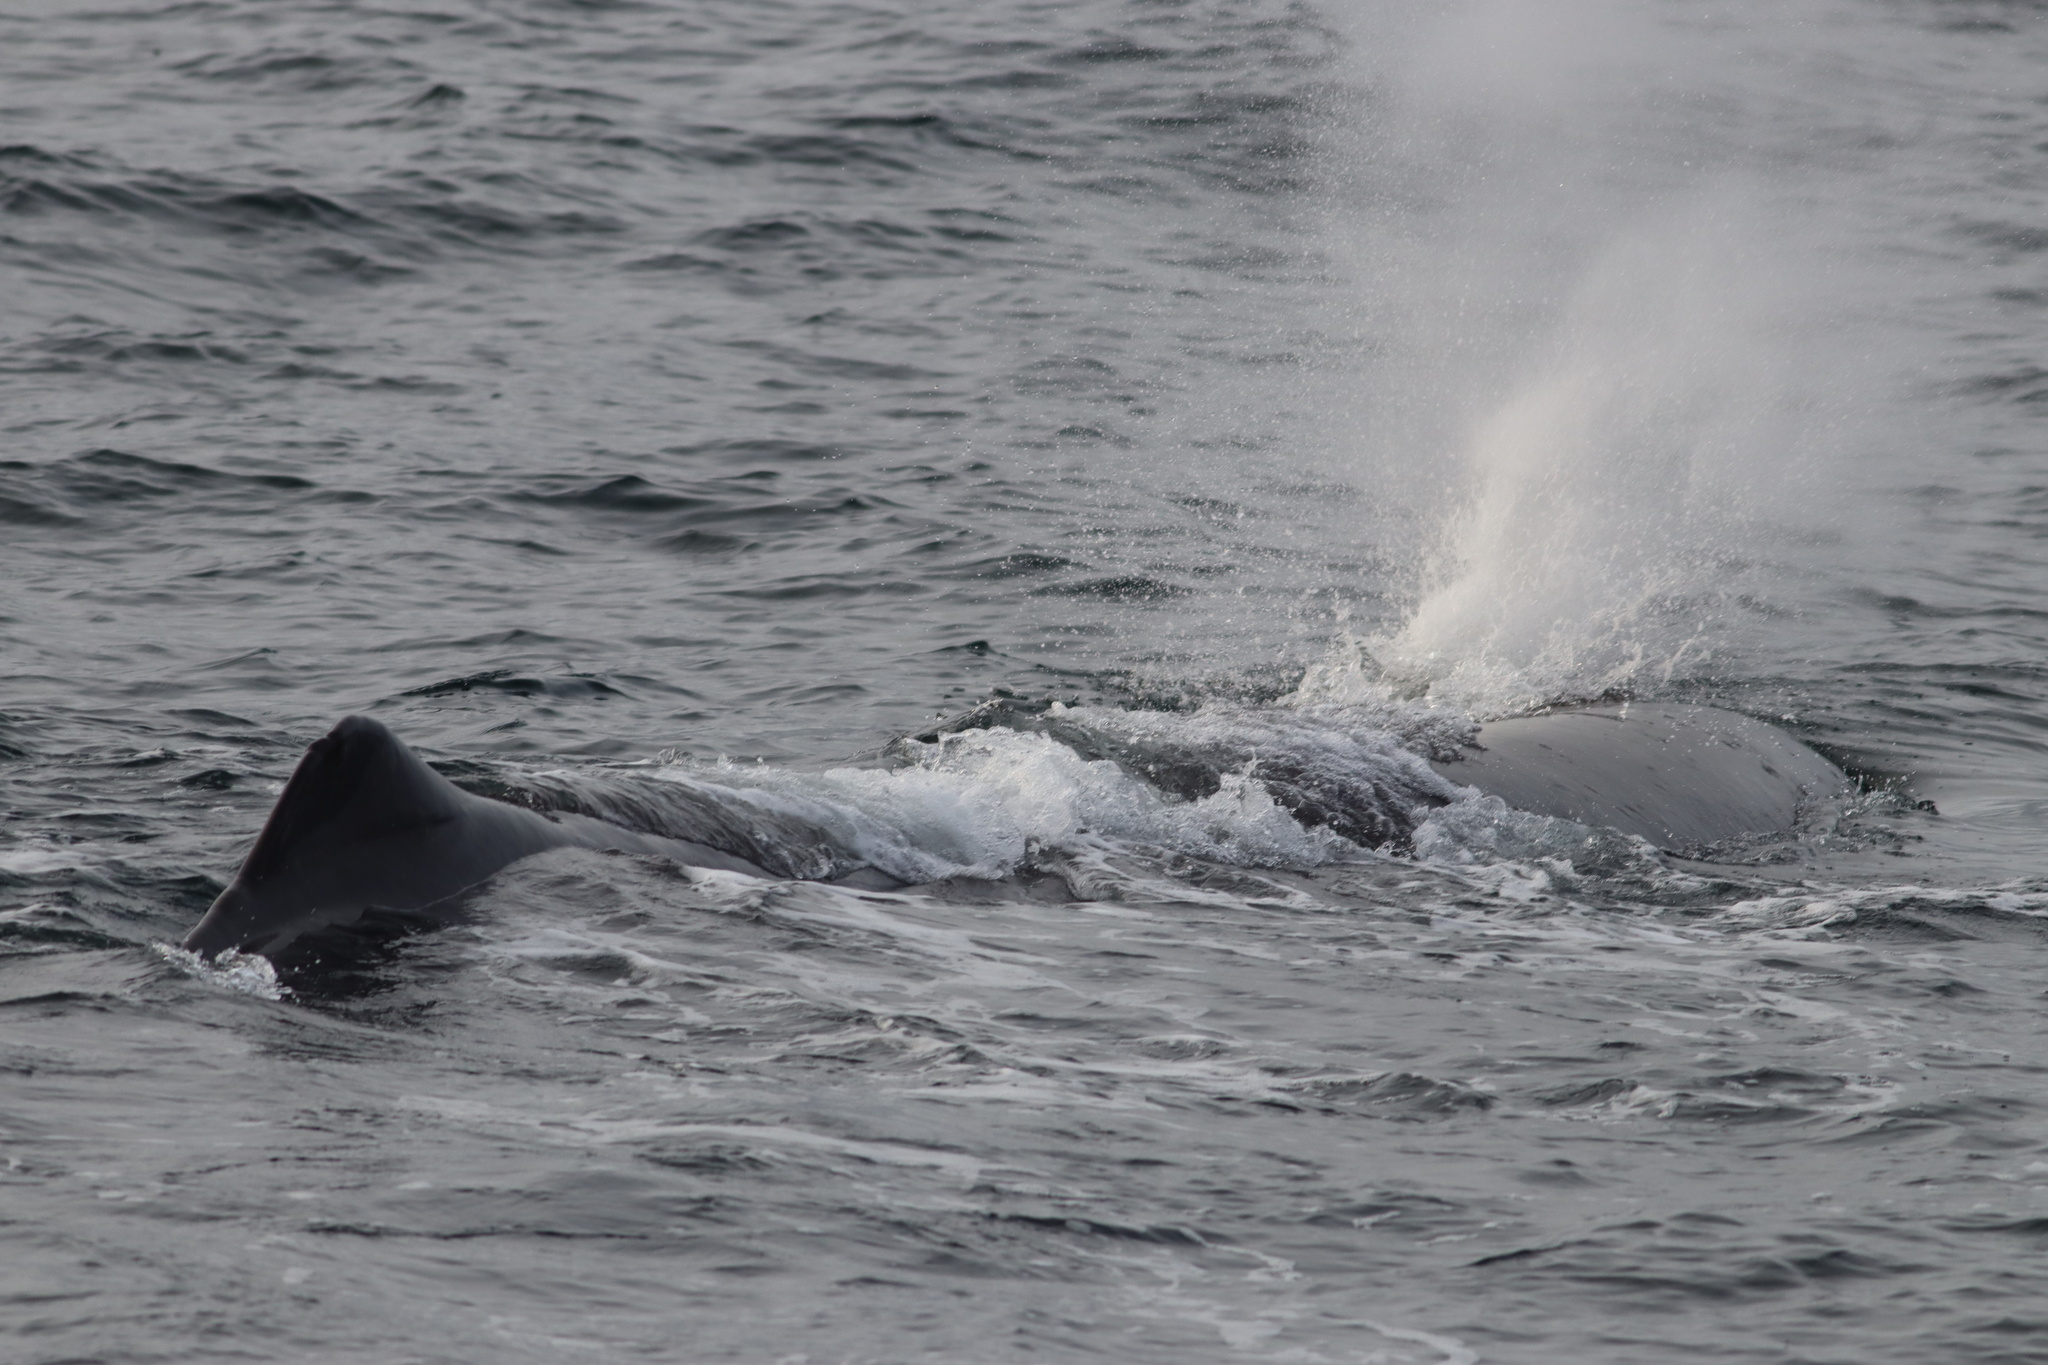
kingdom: Animalia
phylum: Chordata
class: Mammalia
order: Cetacea
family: Physeteridae
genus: Physeter
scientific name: Physeter macrocephalus
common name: Sperm whale
